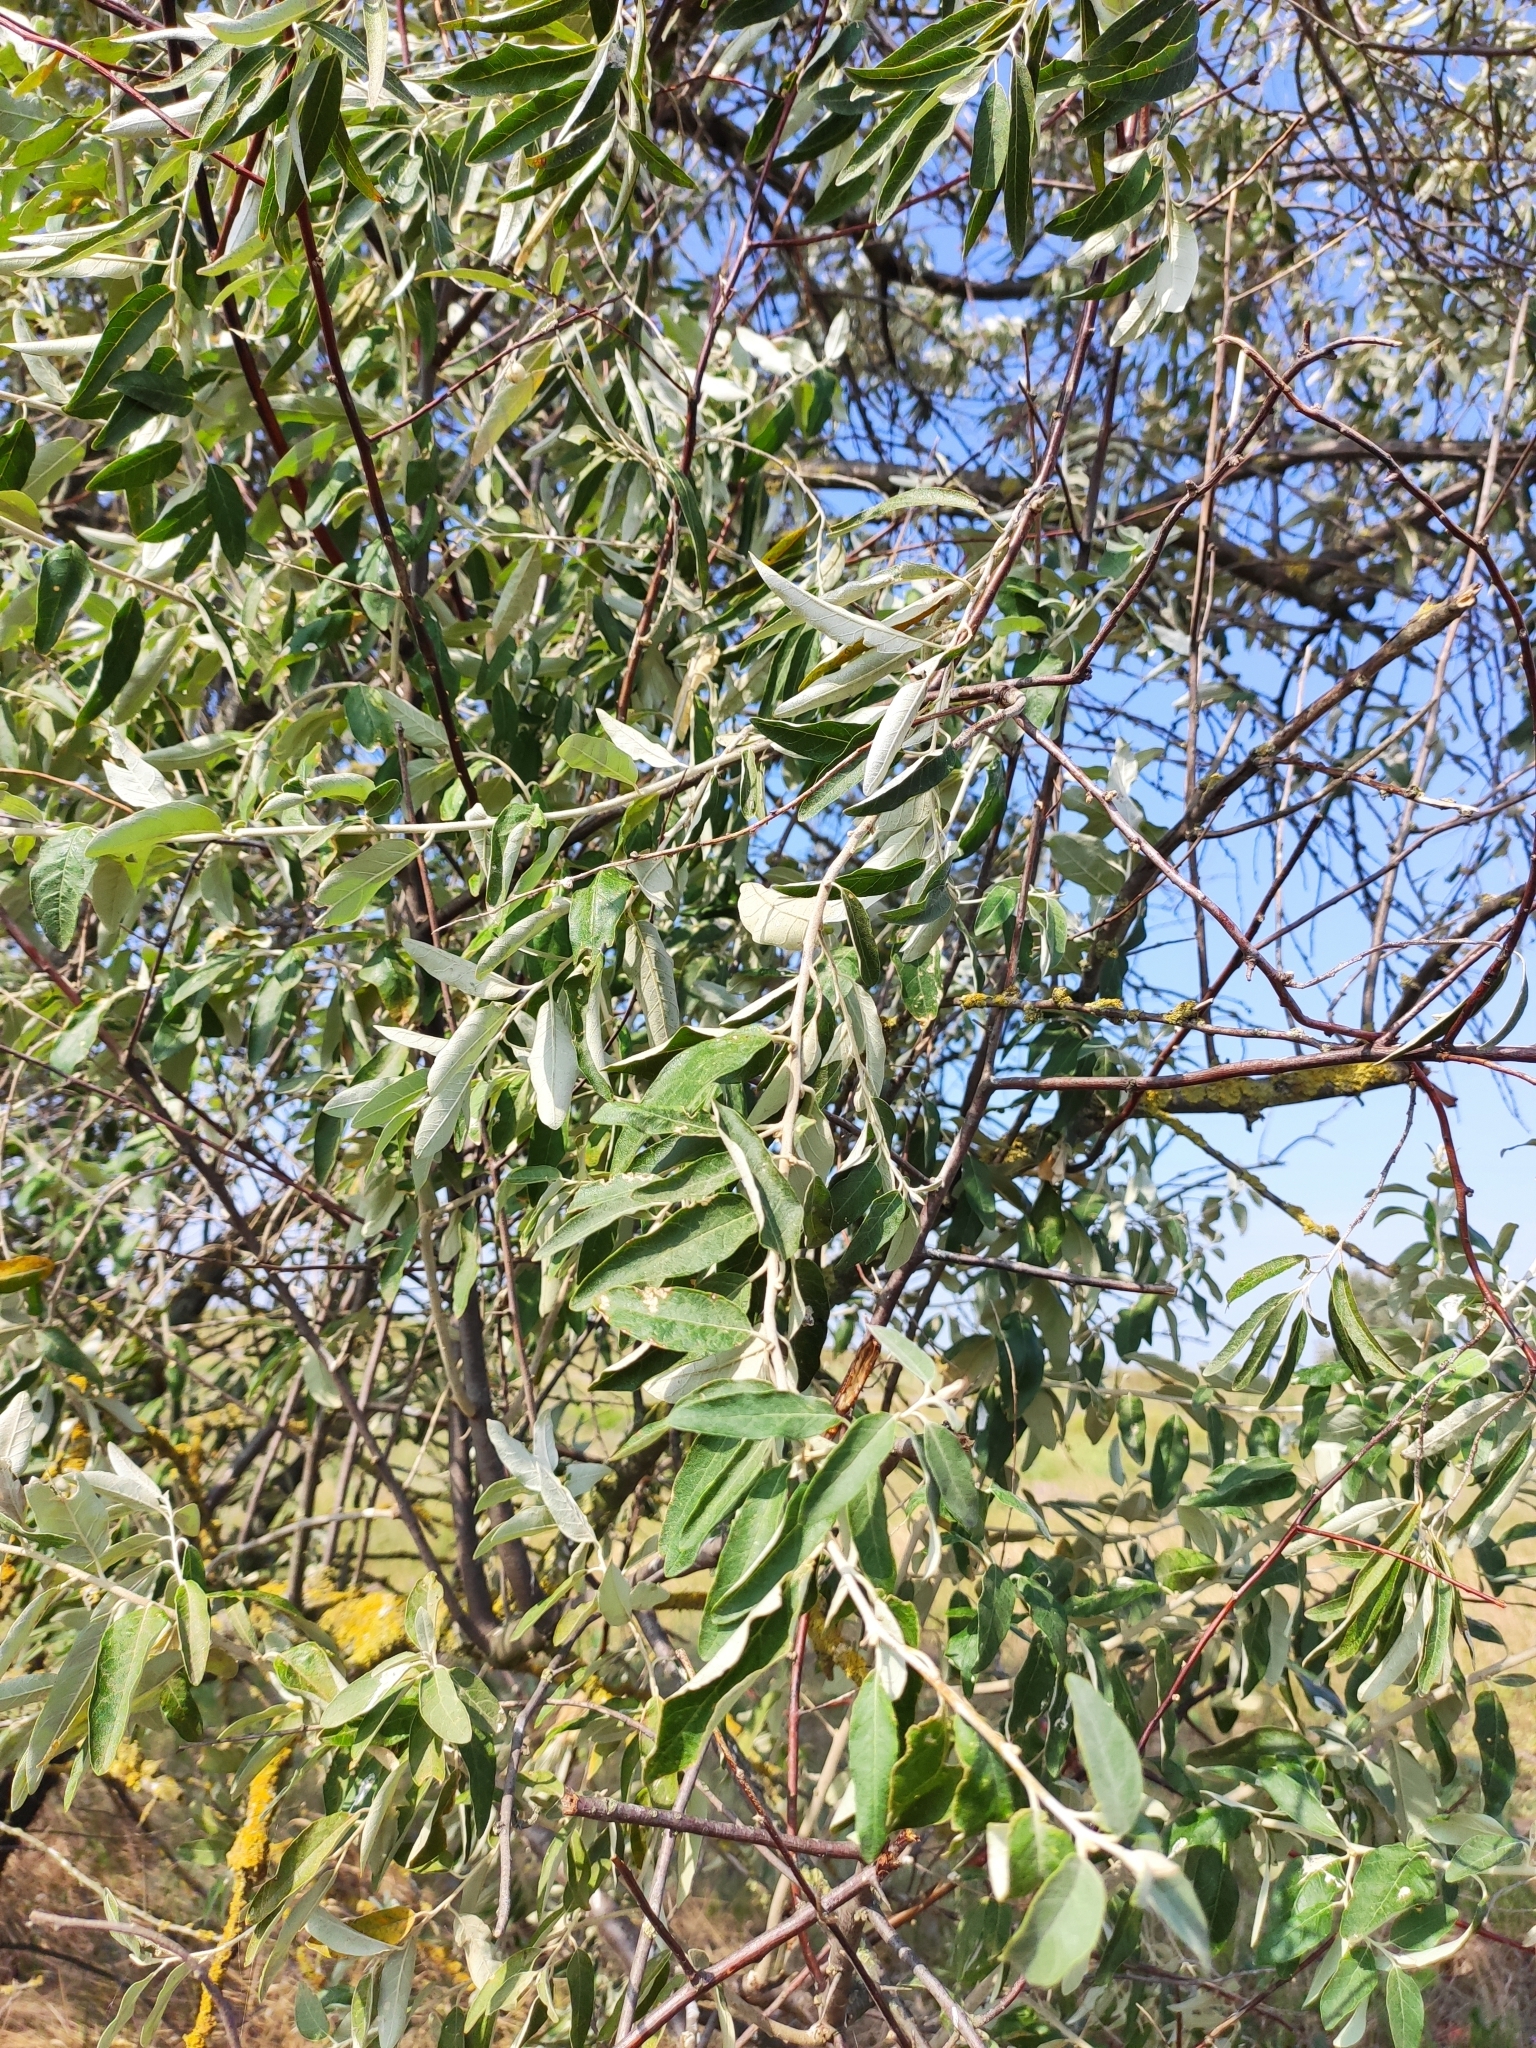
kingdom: Plantae
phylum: Tracheophyta
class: Magnoliopsida
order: Rosales
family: Elaeagnaceae
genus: Elaeagnus
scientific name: Elaeagnus angustifolia
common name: Russian olive
